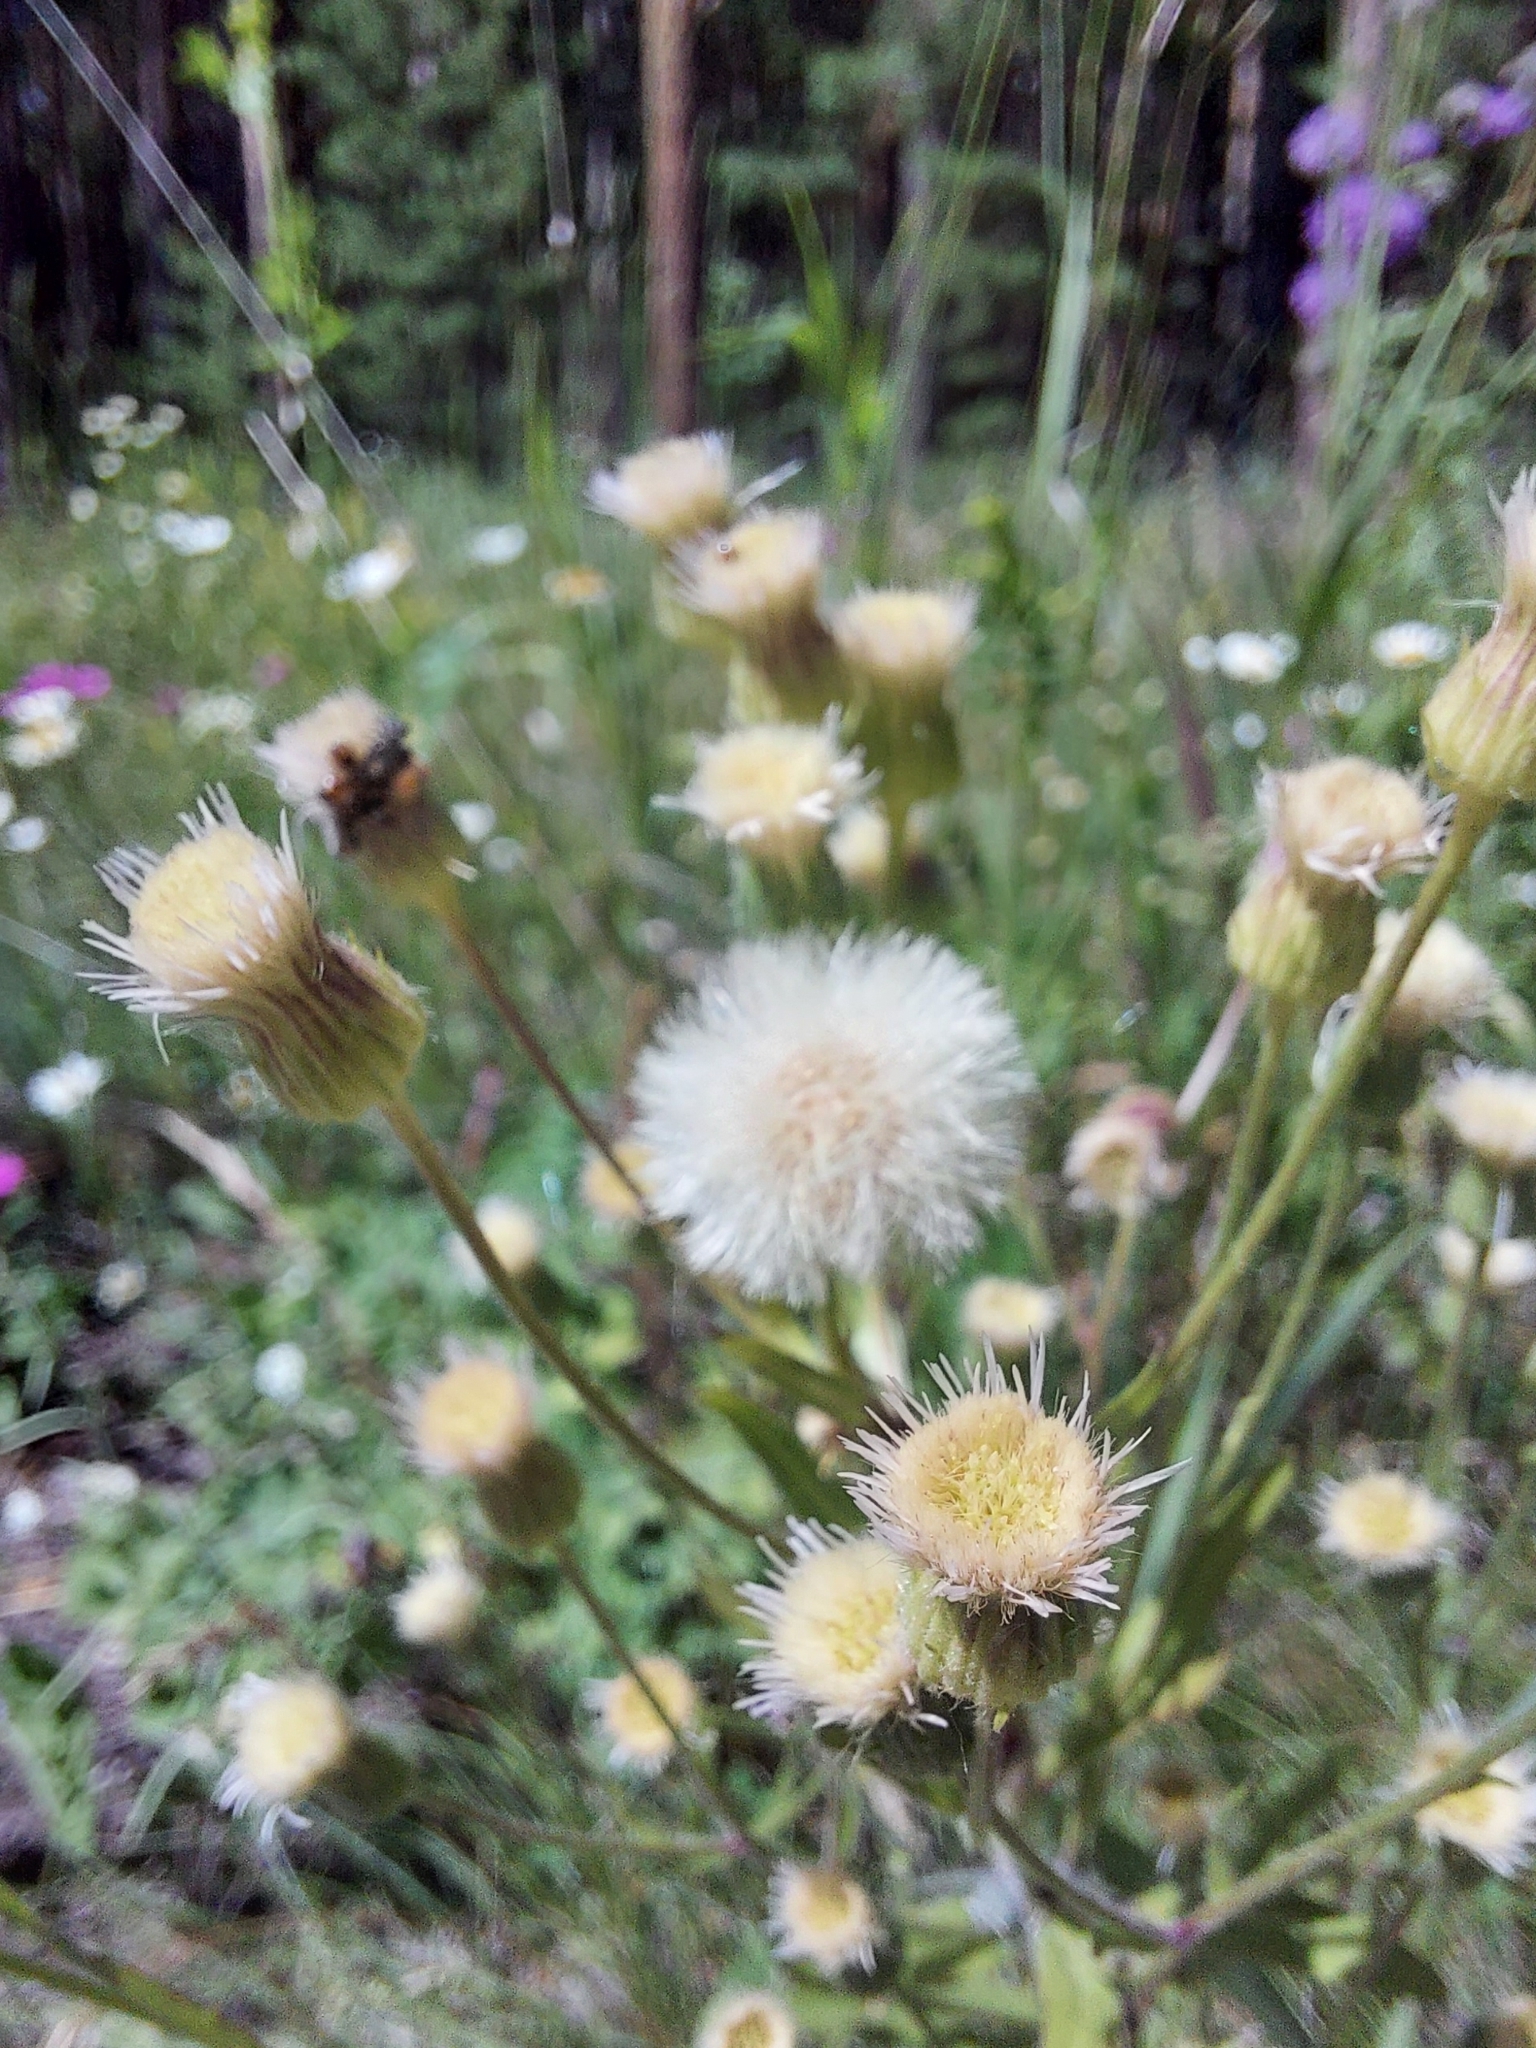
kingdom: Plantae
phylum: Tracheophyta
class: Magnoliopsida
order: Asterales
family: Asteraceae
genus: Erigeron
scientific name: Erigeron acris
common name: Blue fleabane
